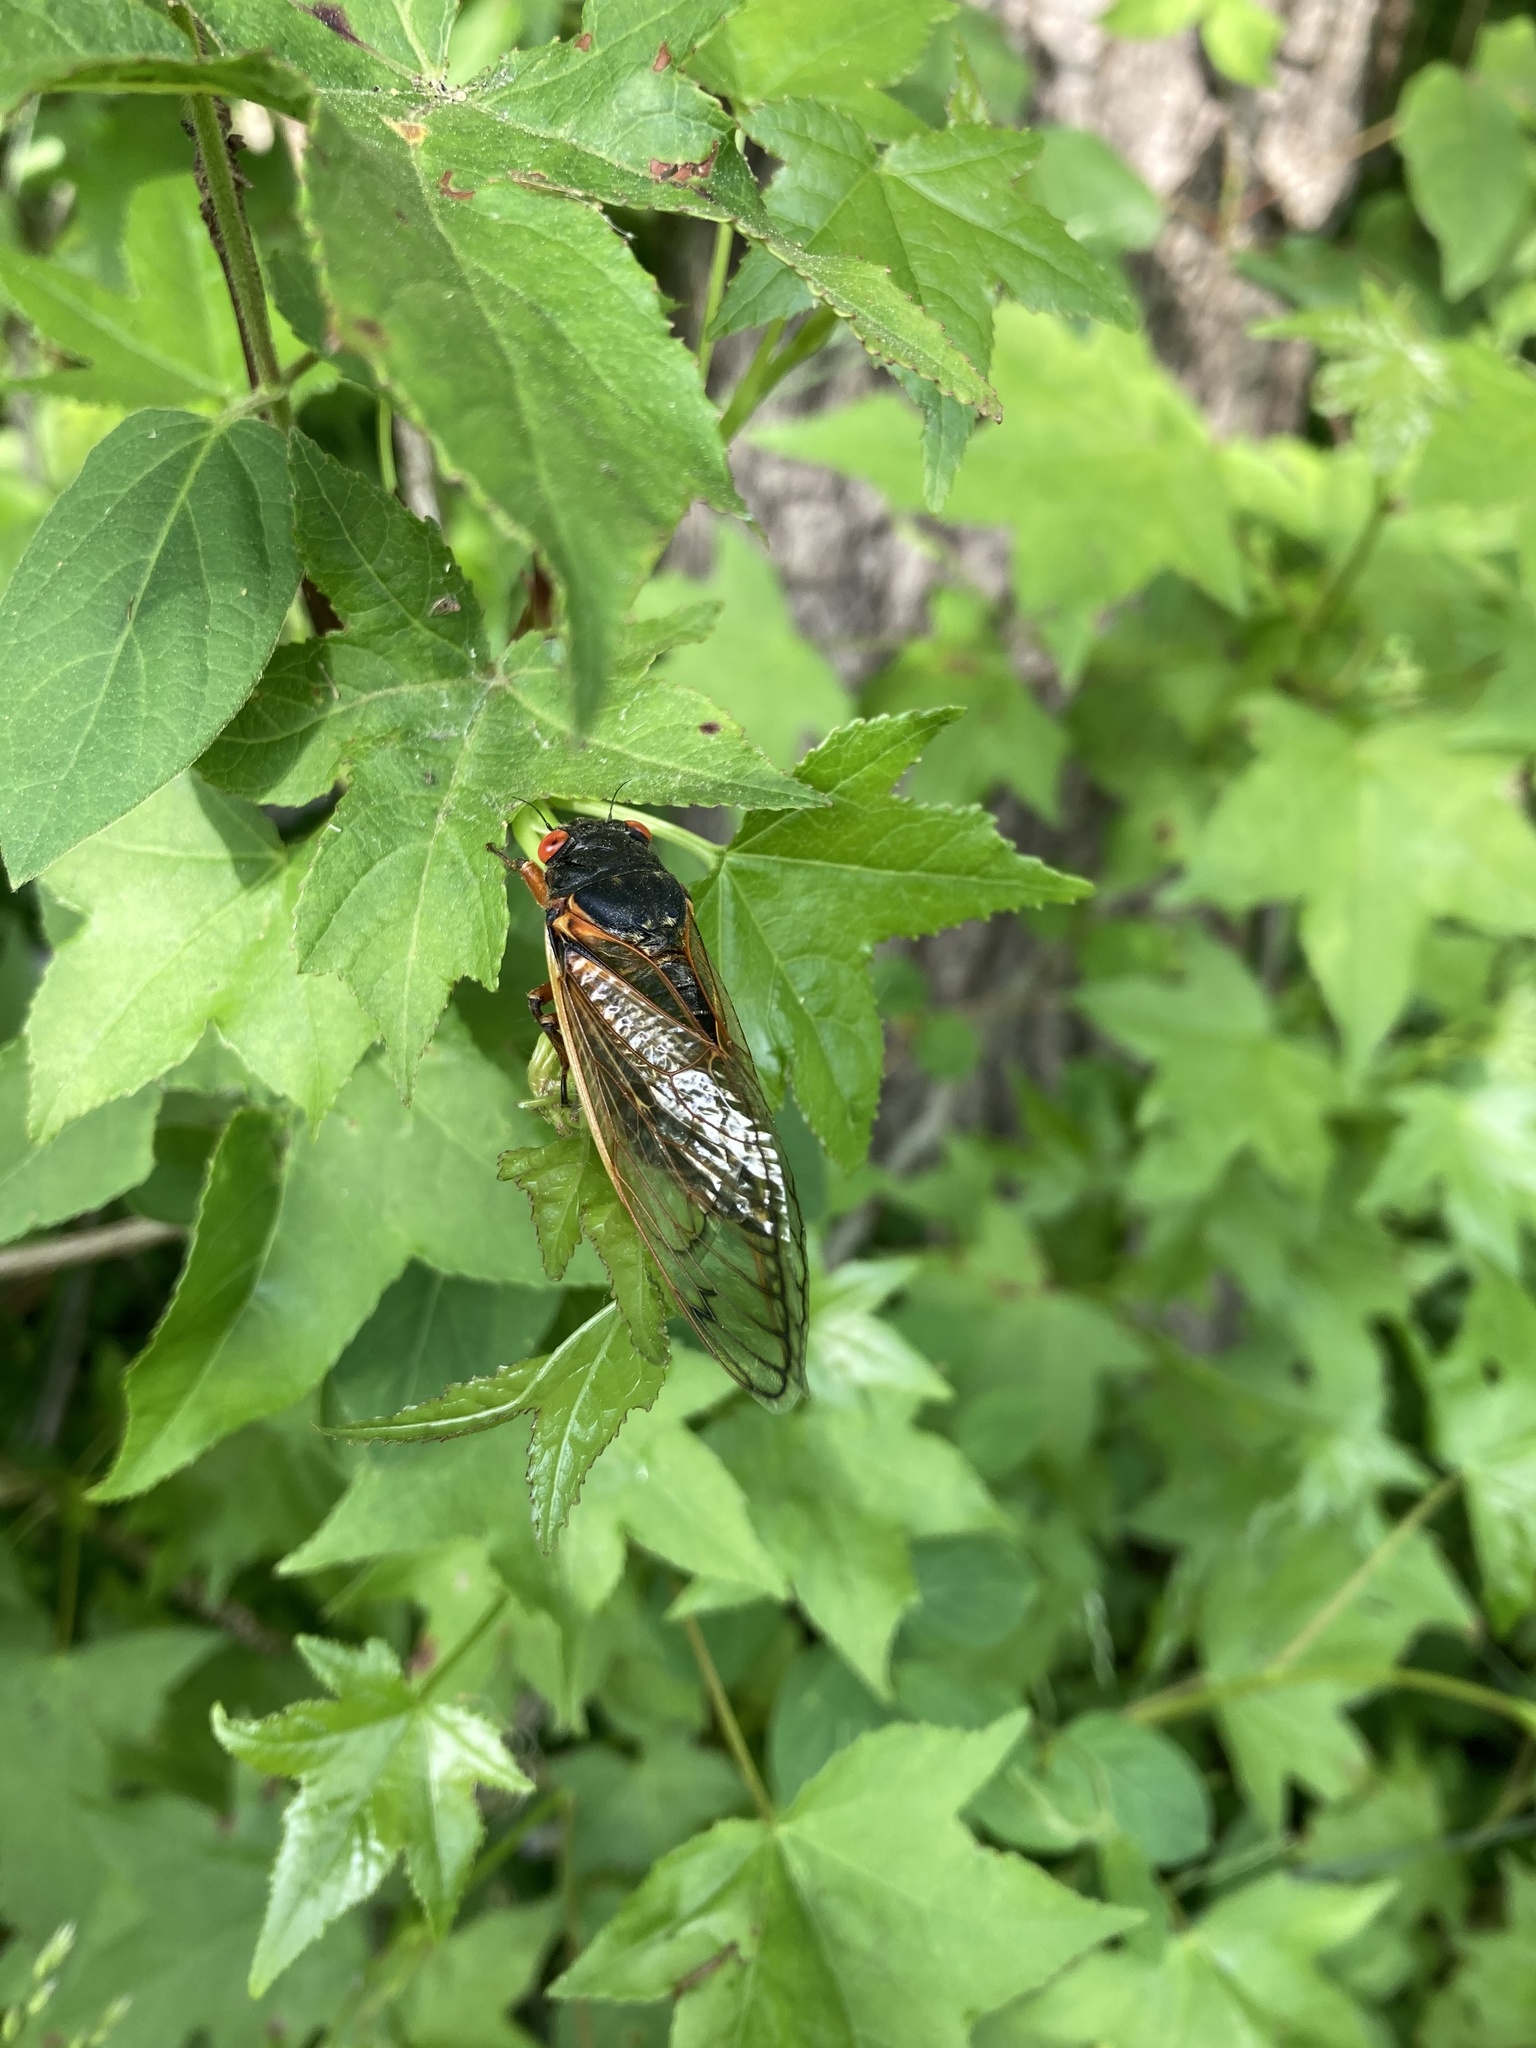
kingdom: Animalia
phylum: Arthropoda
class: Insecta
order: Hemiptera
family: Cicadidae
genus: Magicicada
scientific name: Magicicada
